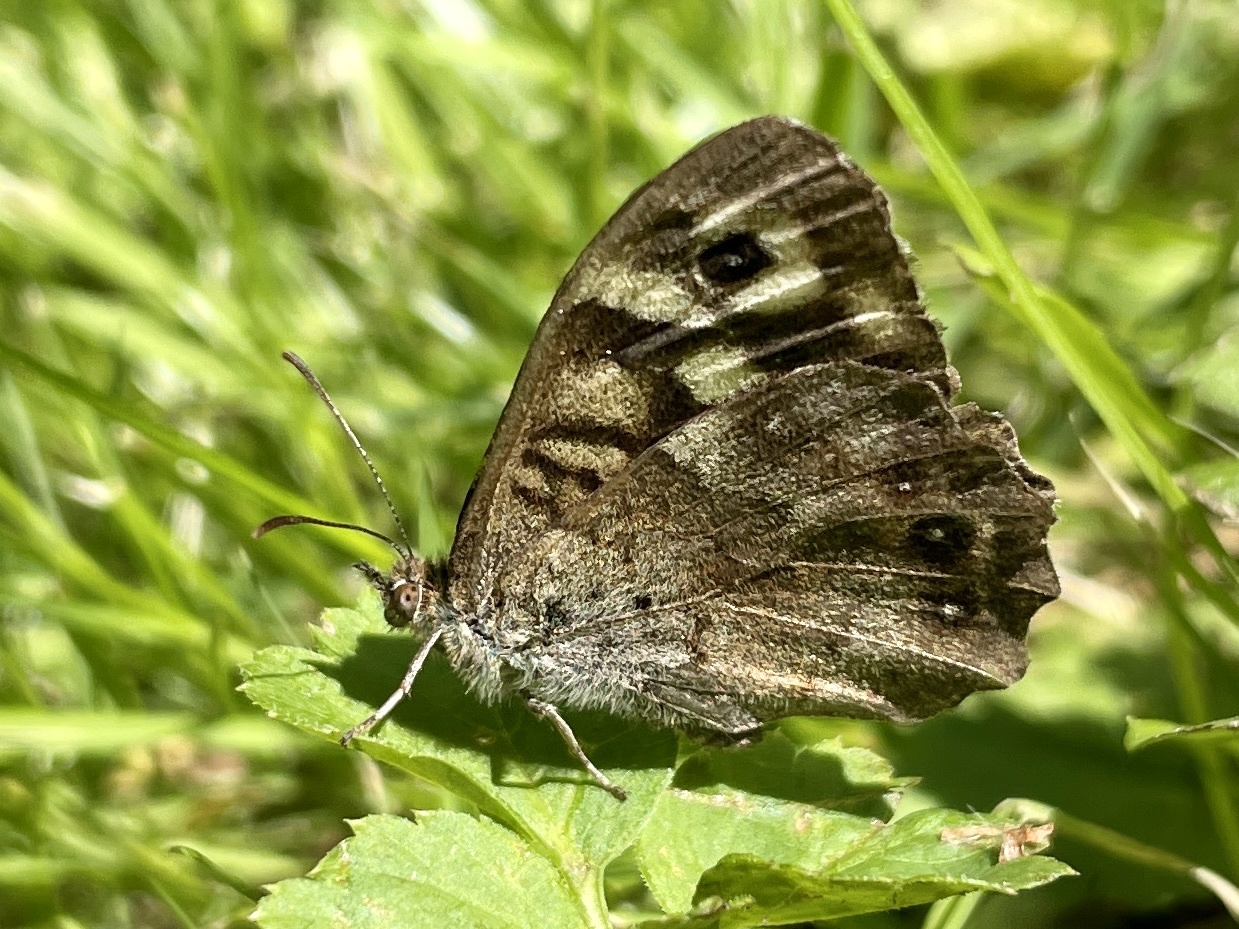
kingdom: Animalia
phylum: Arthropoda
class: Insecta
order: Lepidoptera
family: Nymphalidae
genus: Pararge
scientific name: Pararge aegeria
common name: Speckled wood
